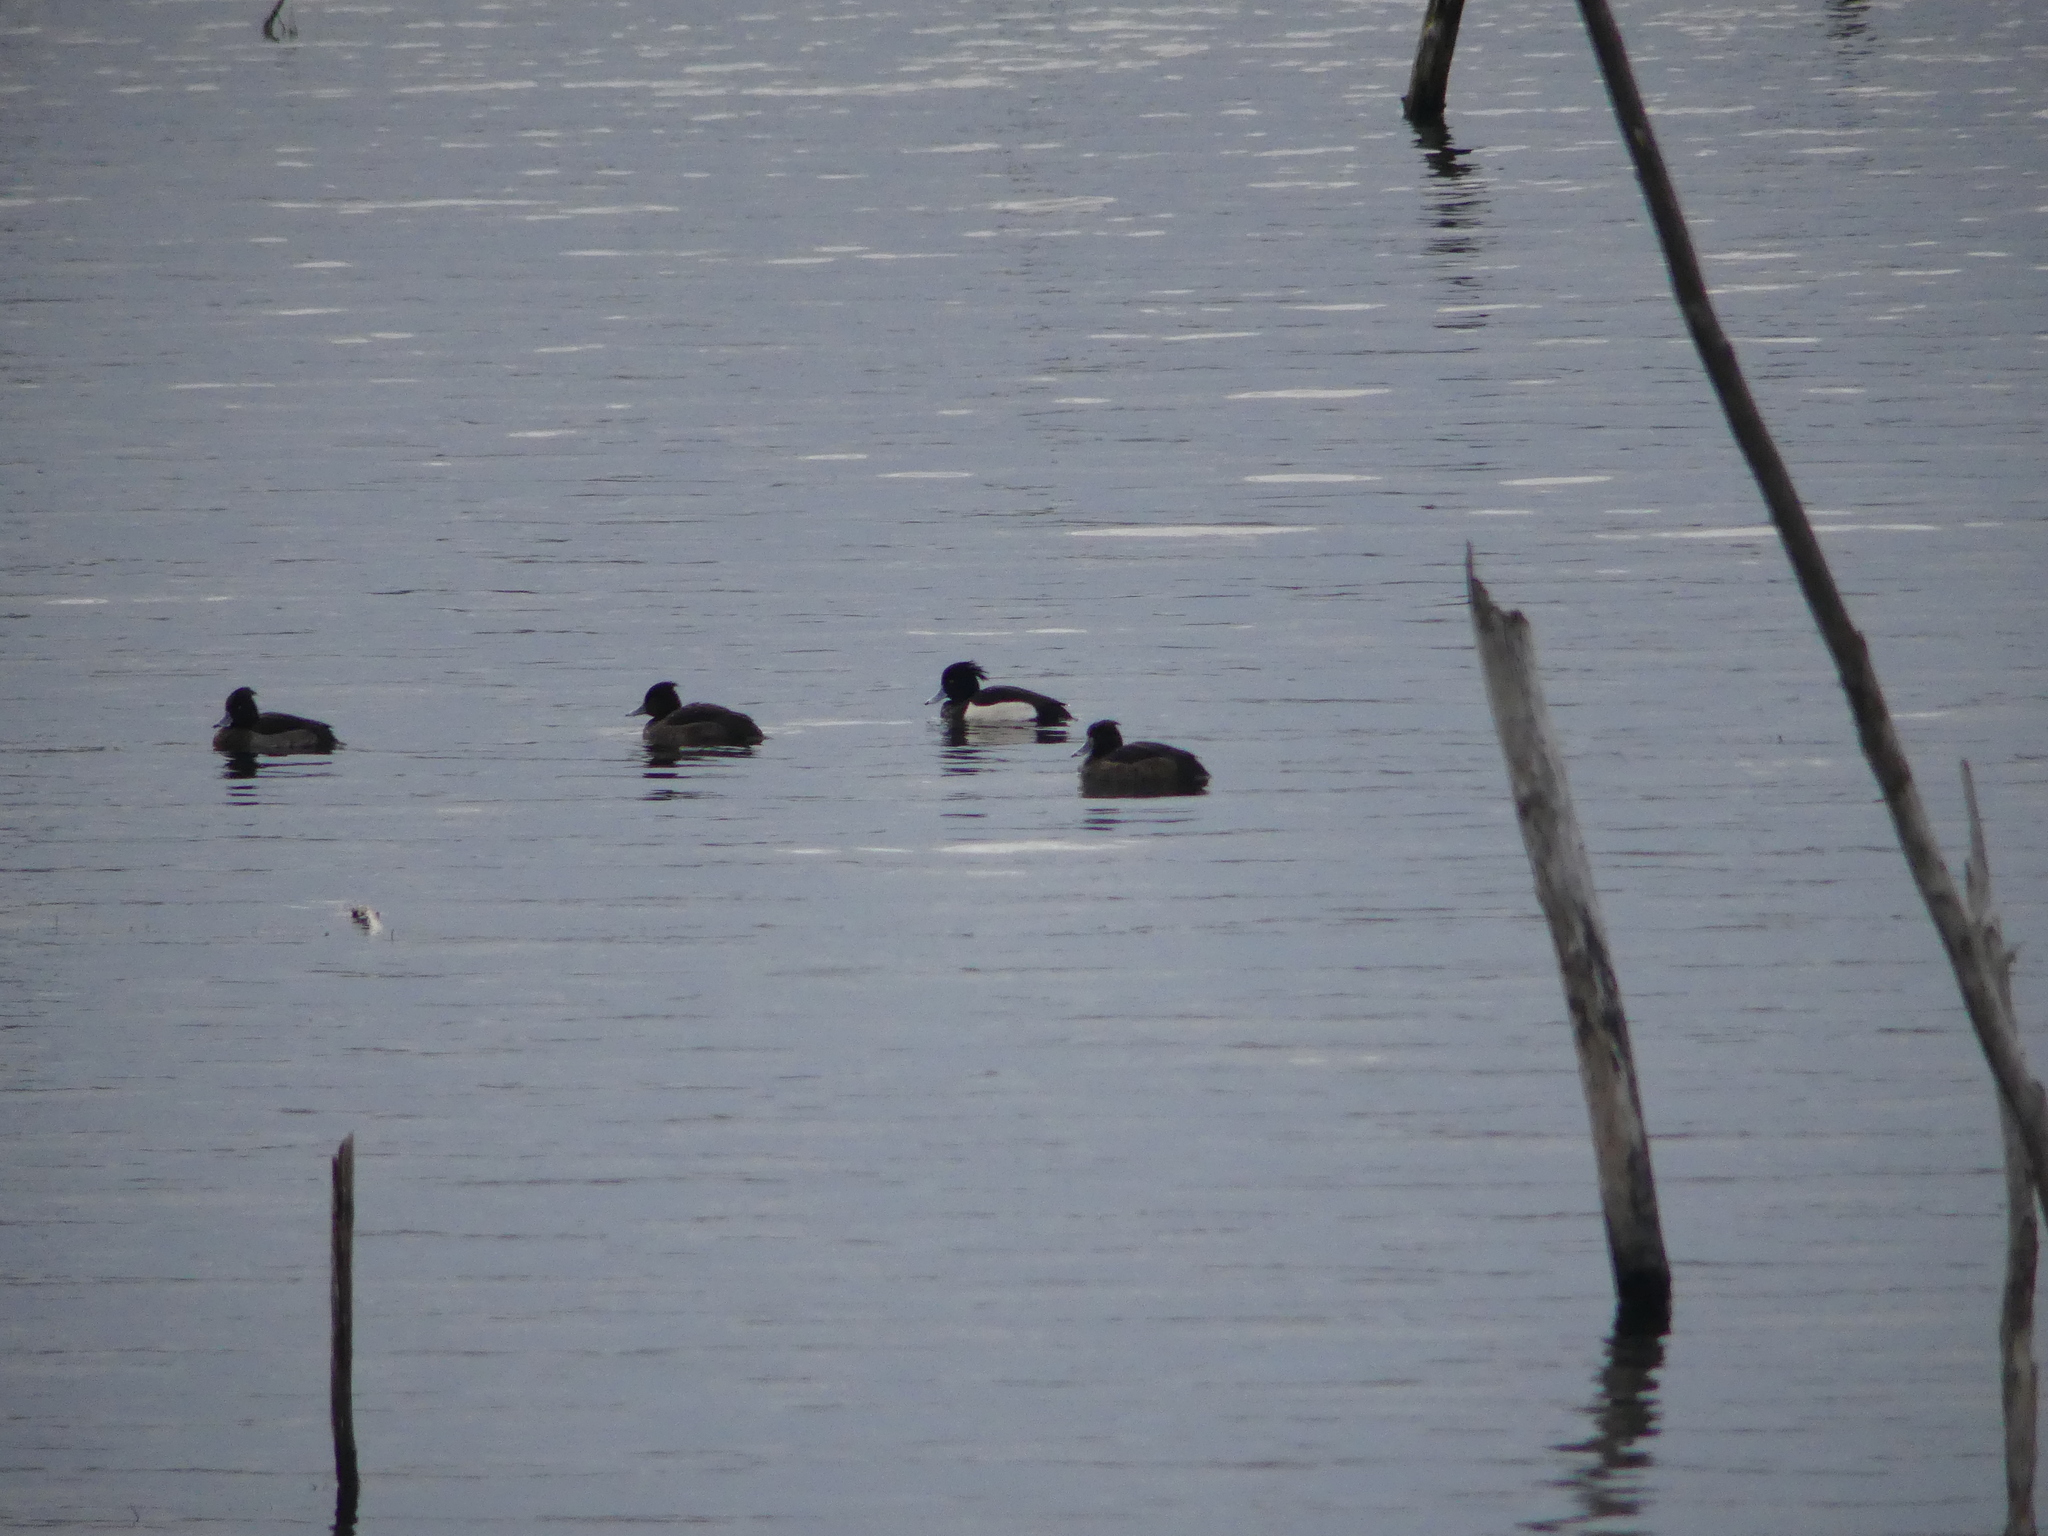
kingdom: Animalia
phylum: Chordata
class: Aves
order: Anseriformes
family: Anatidae
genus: Aythya
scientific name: Aythya fuligula
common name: Tufted duck
